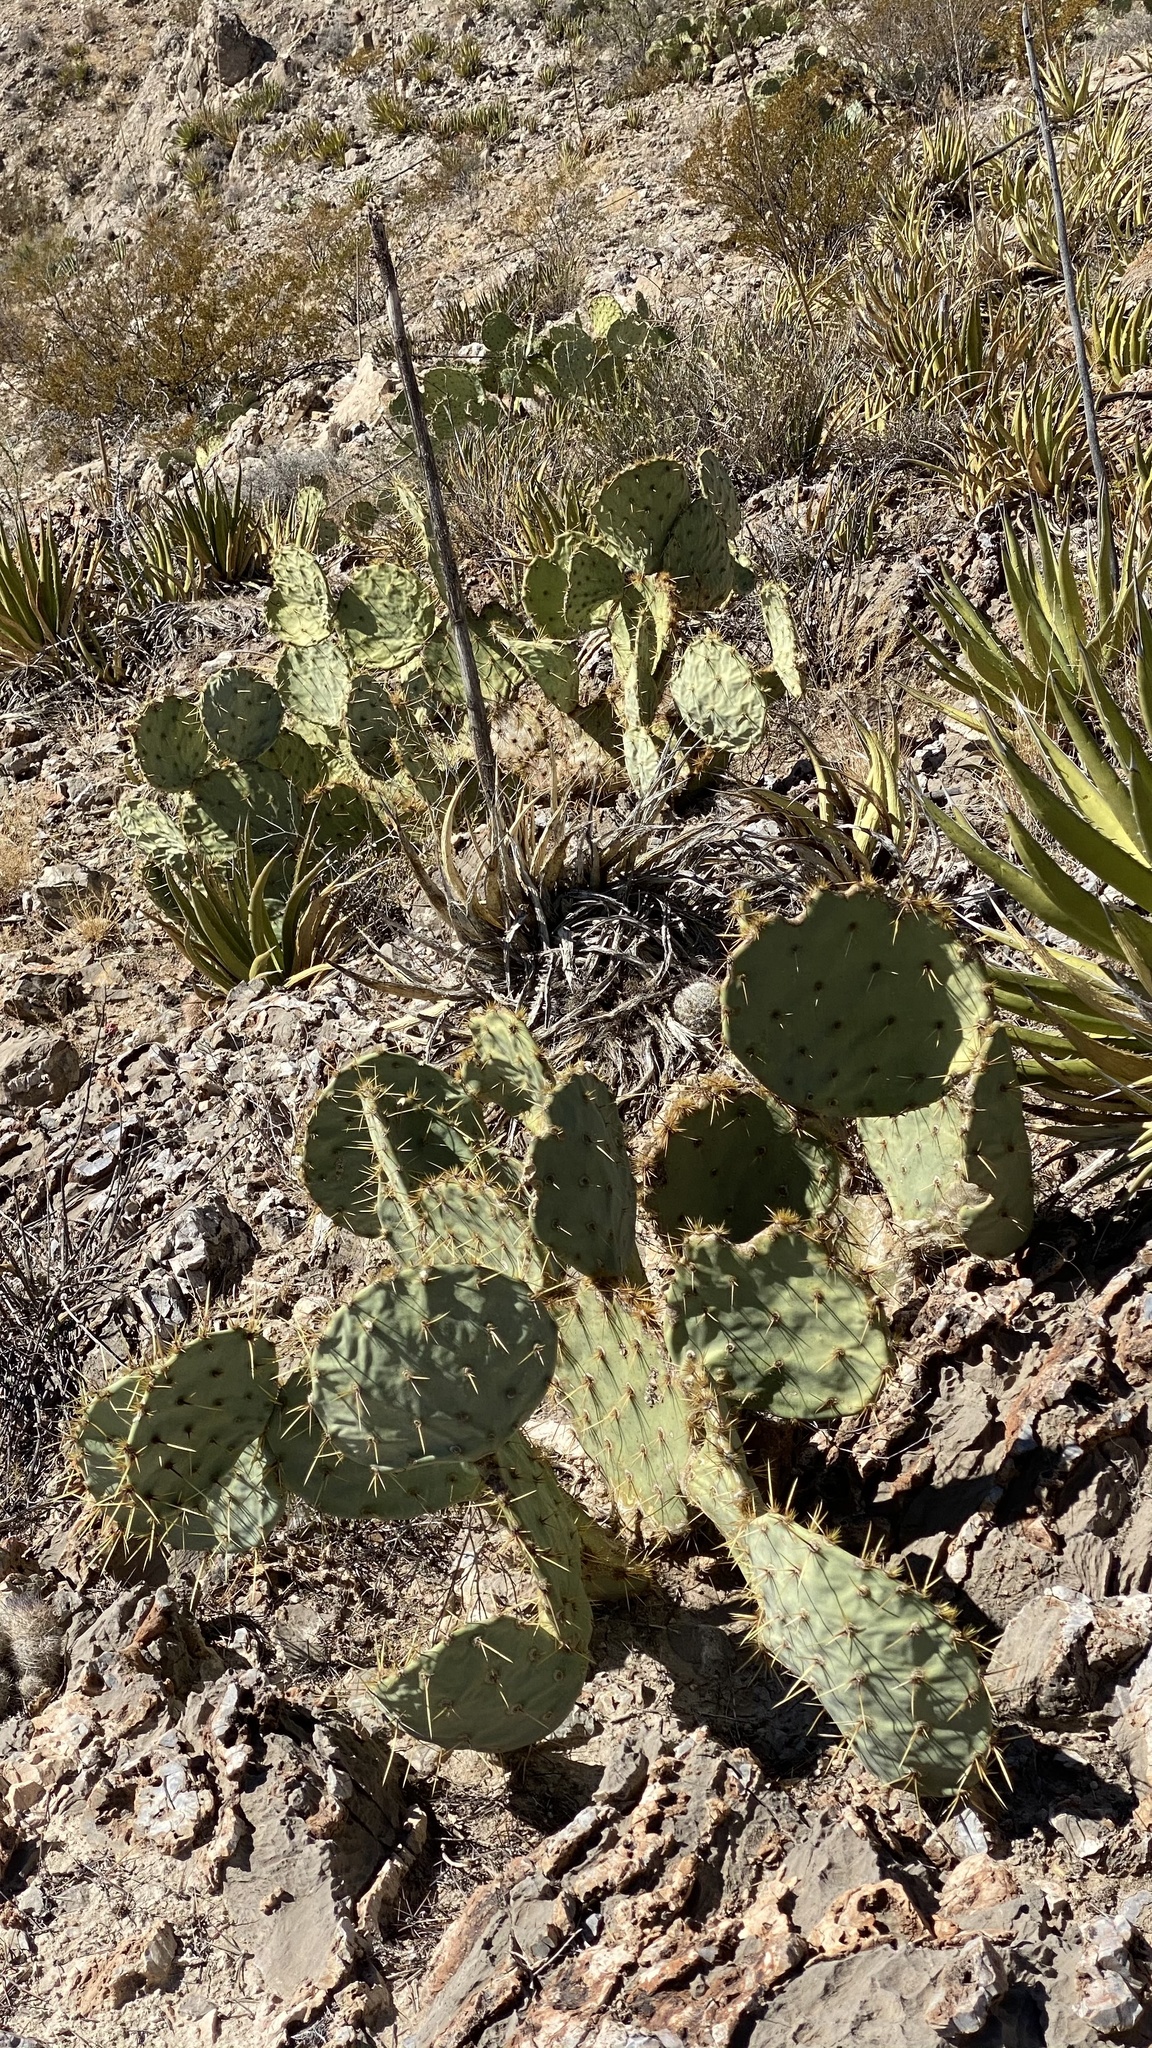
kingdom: Plantae
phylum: Tracheophyta
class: Magnoliopsida
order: Caryophyllales
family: Cactaceae
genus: Opuntia
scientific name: Opuntia phaeacantha
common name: New mexico prickly-pear
